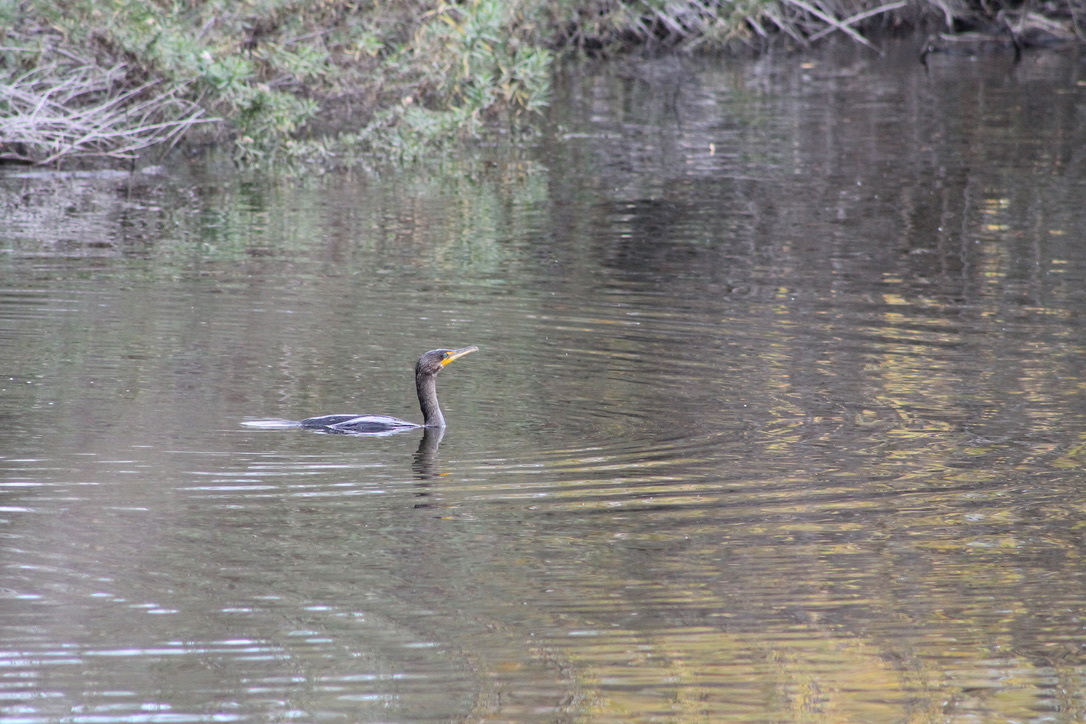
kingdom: Animalia
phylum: Chordata
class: Aves
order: Suliformes
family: Phalacrocoracidae
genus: Phalacrocorax
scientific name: Phalacrocorax auritus
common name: Double-crested cormorant
